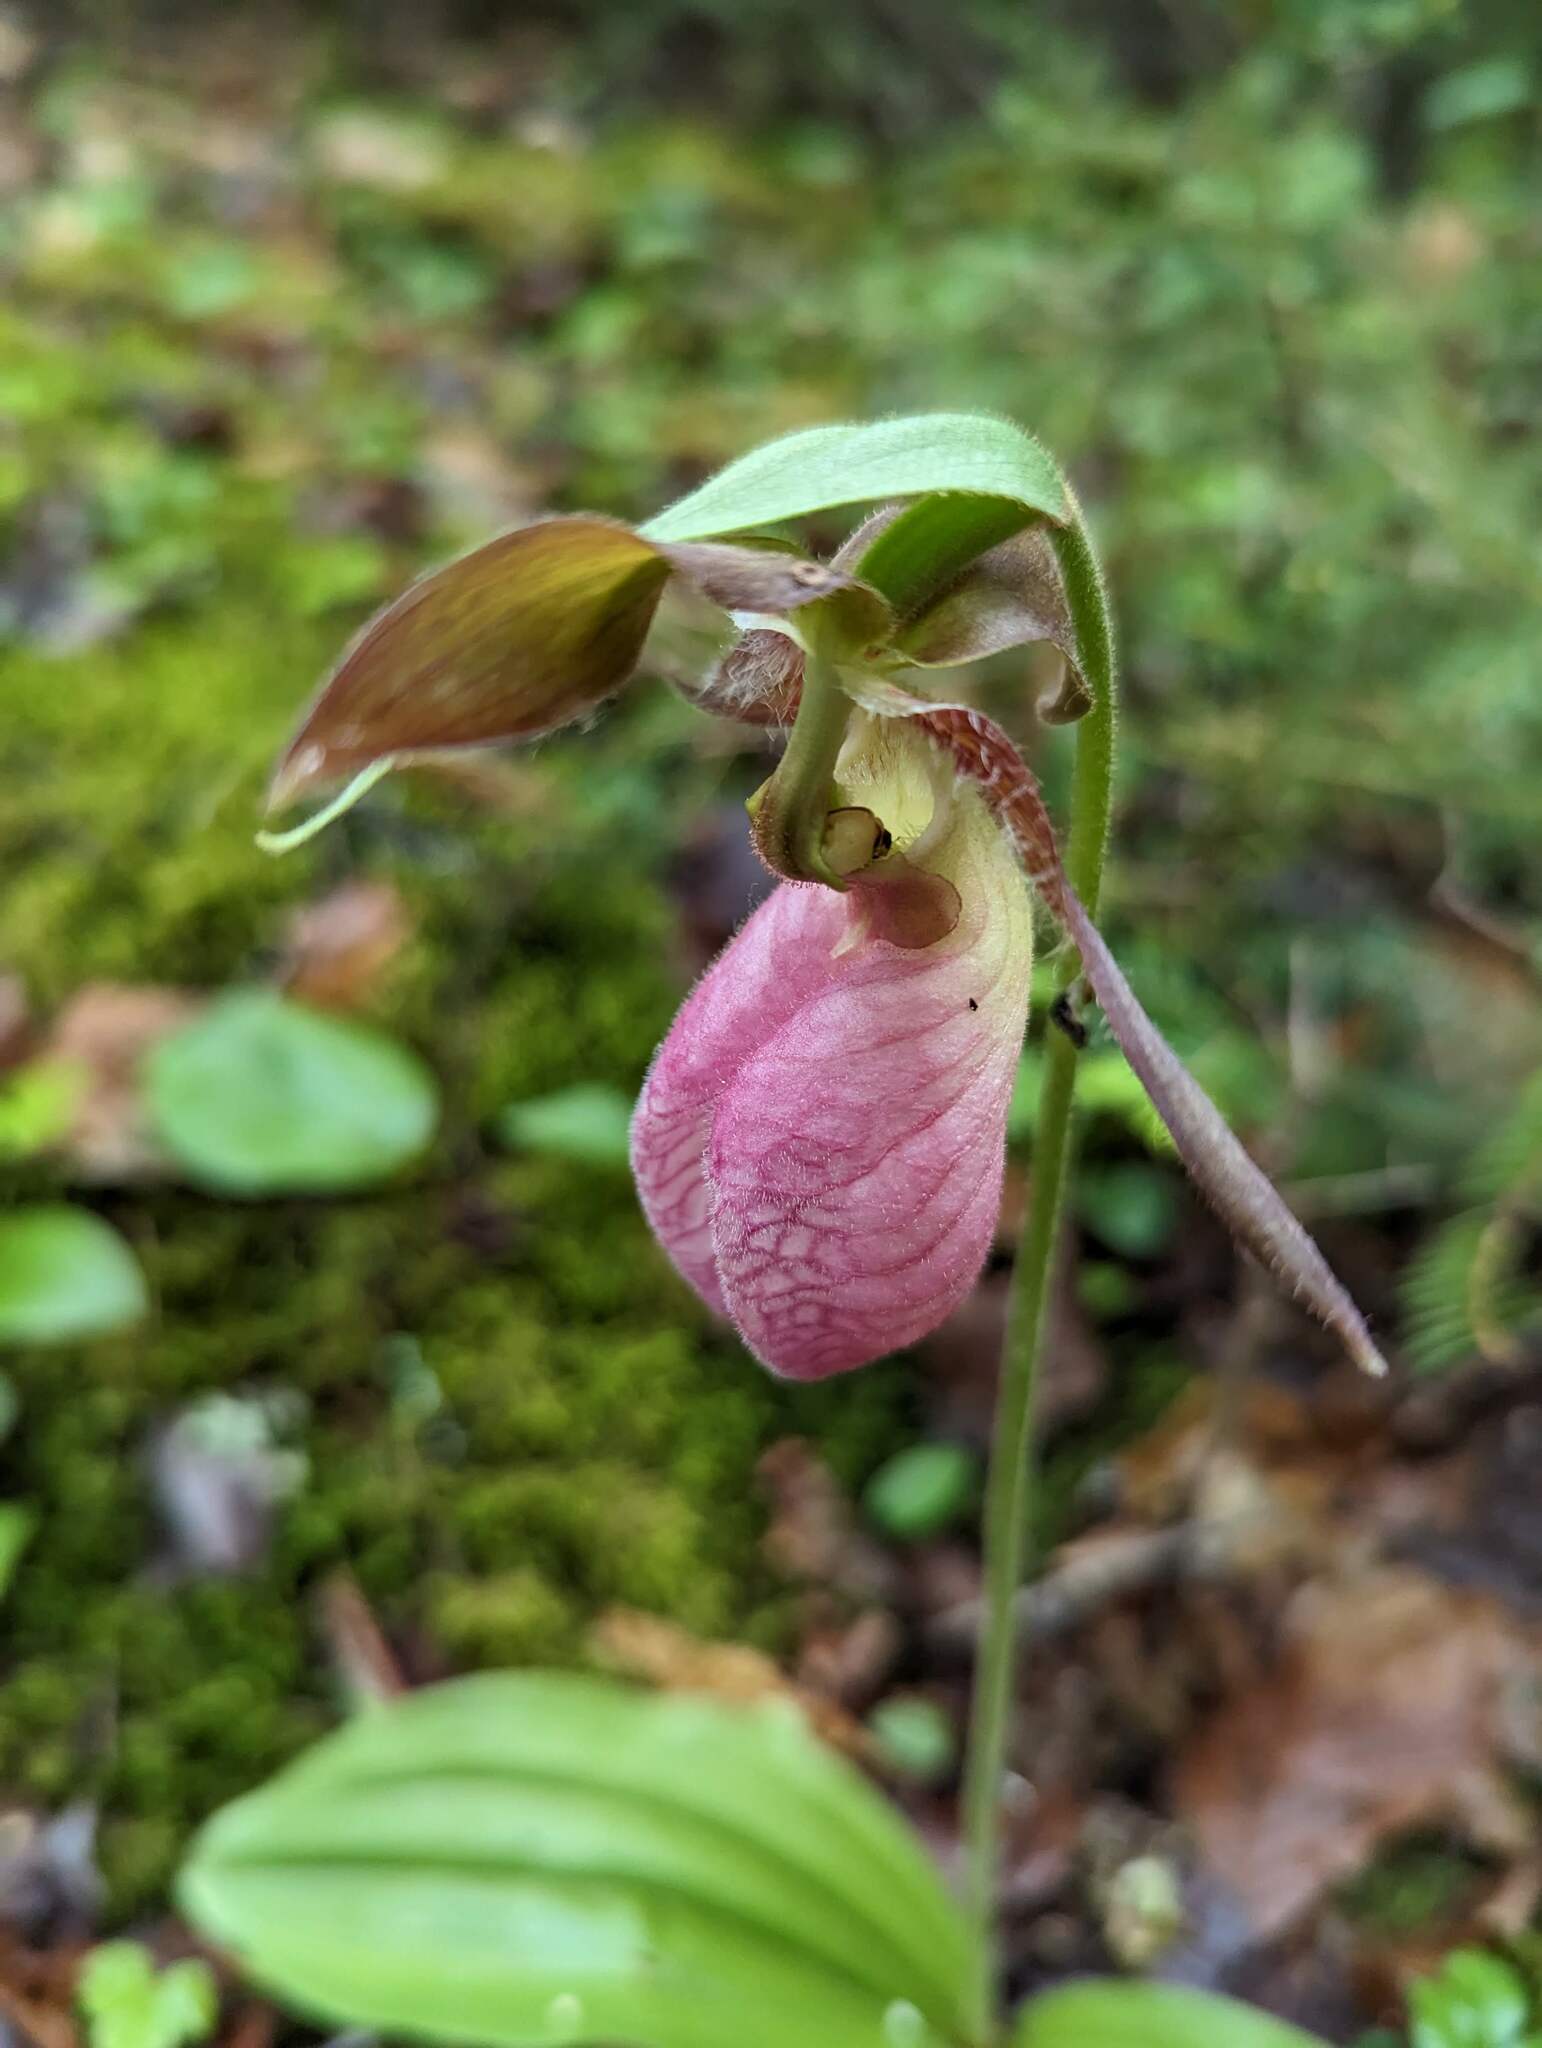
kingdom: Plantae
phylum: Tracheophyta
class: Liliopsida
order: Asparagales
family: Orchidaceae
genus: Cypripedium
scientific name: Cypripedium acaule
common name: Pink lady's-slipper
